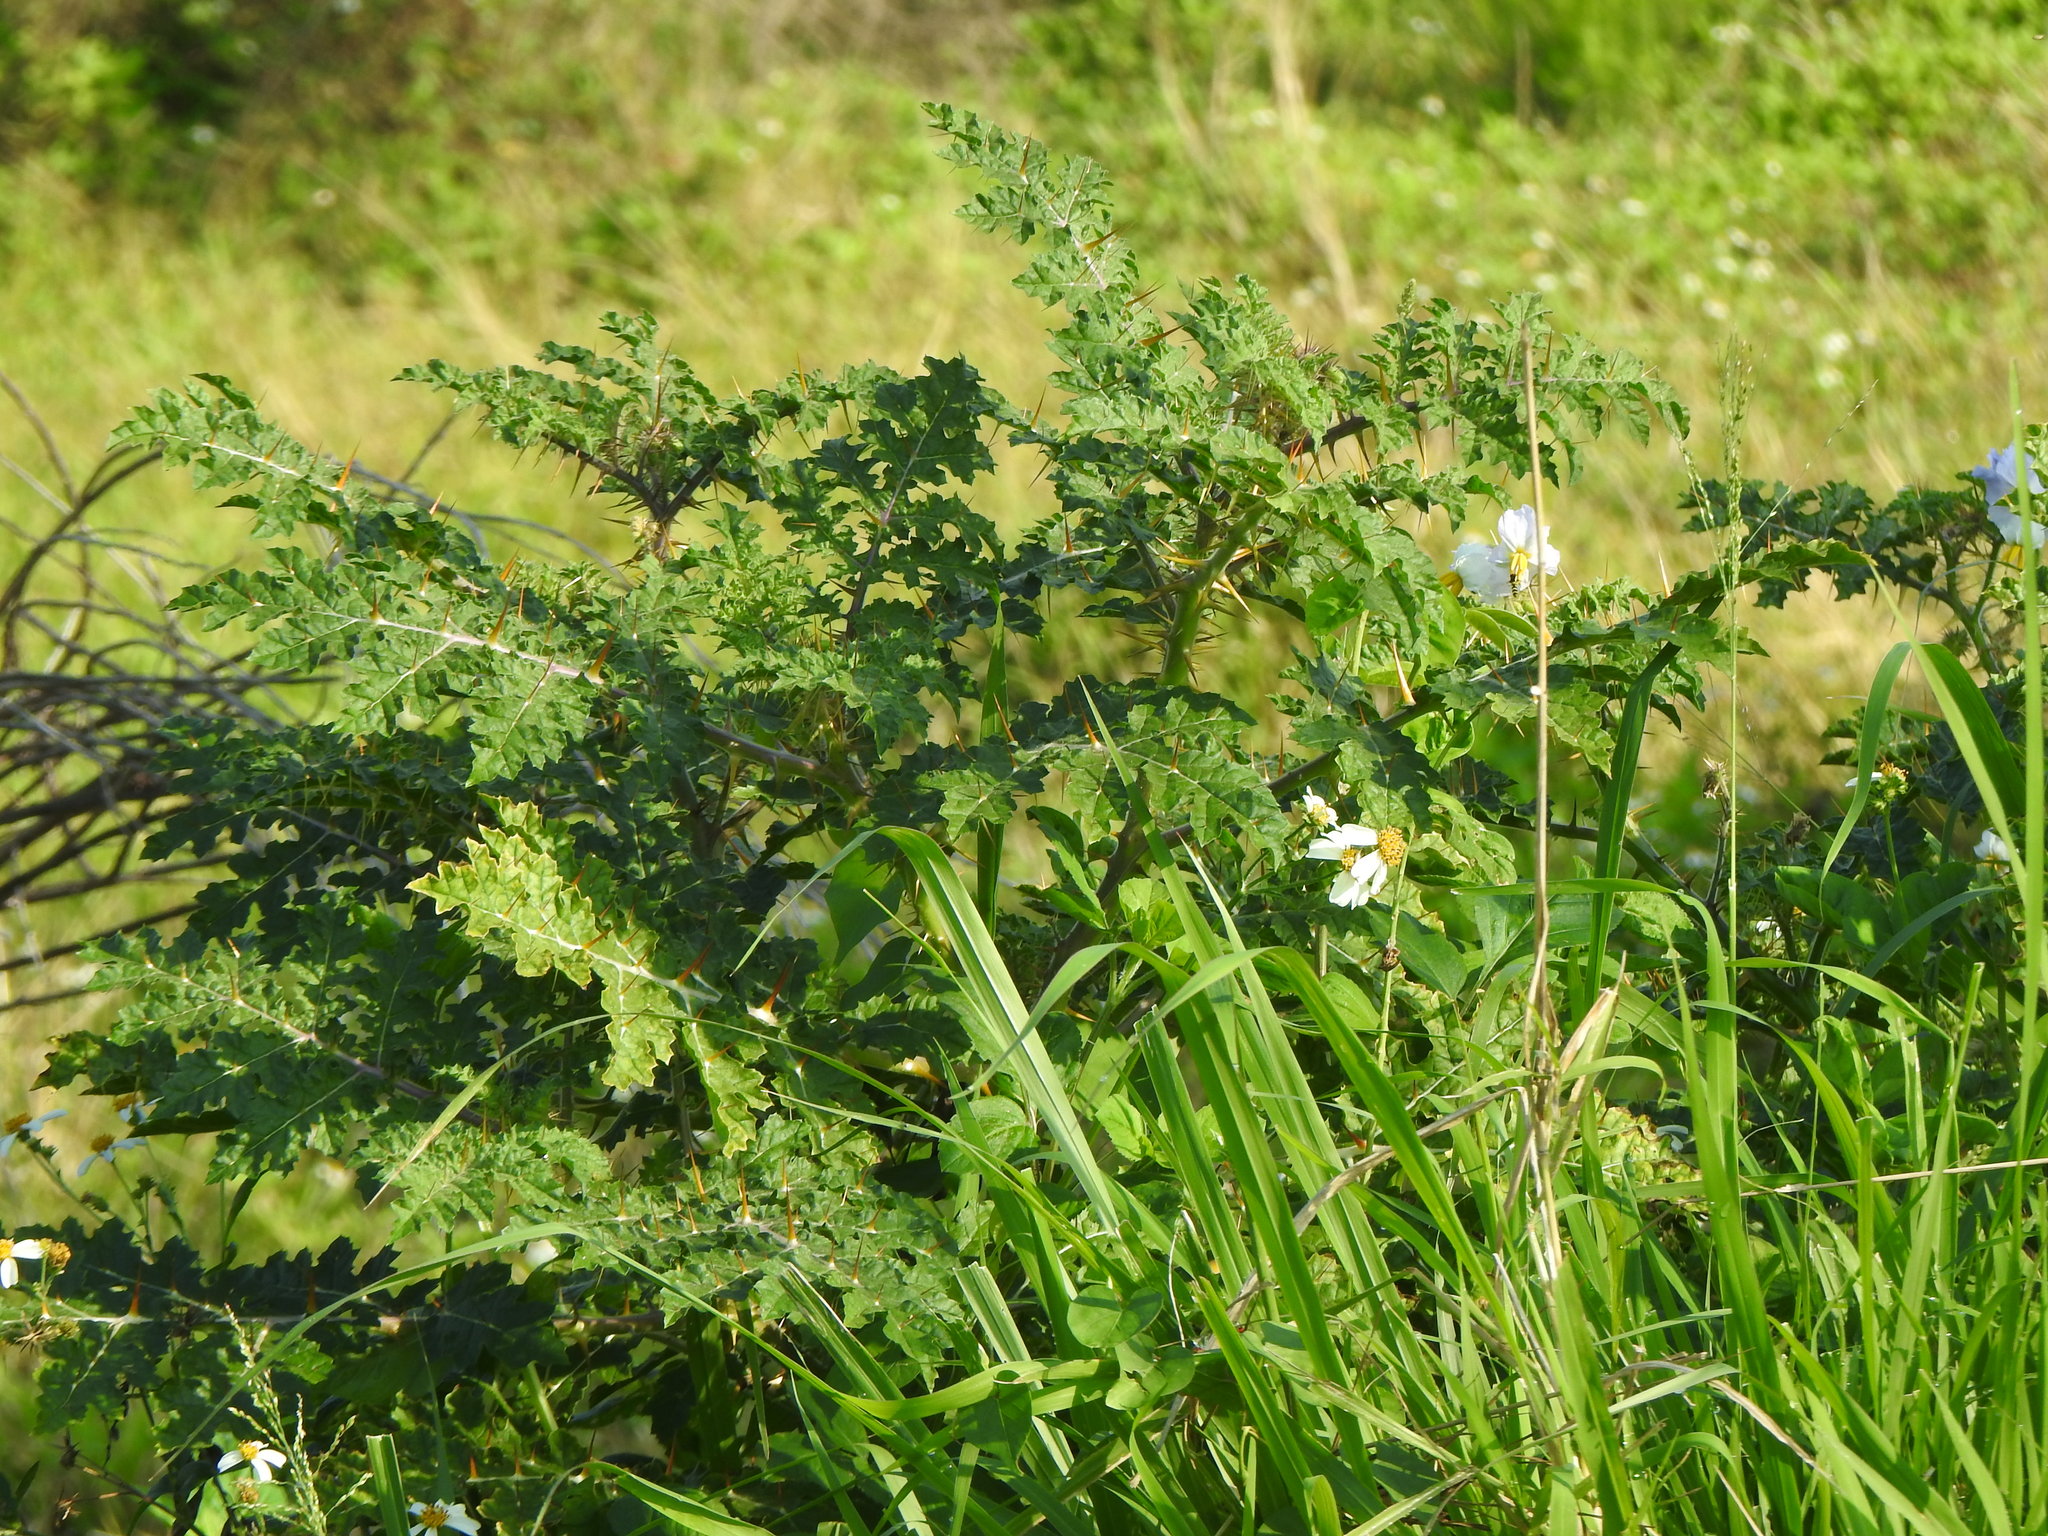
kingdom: Plantae
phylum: Tracheophyta
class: Magnoliopsida
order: Solanales
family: Solanaceae
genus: Solanum
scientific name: Solanum sisymbriifolium
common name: Red buffalo-bur
